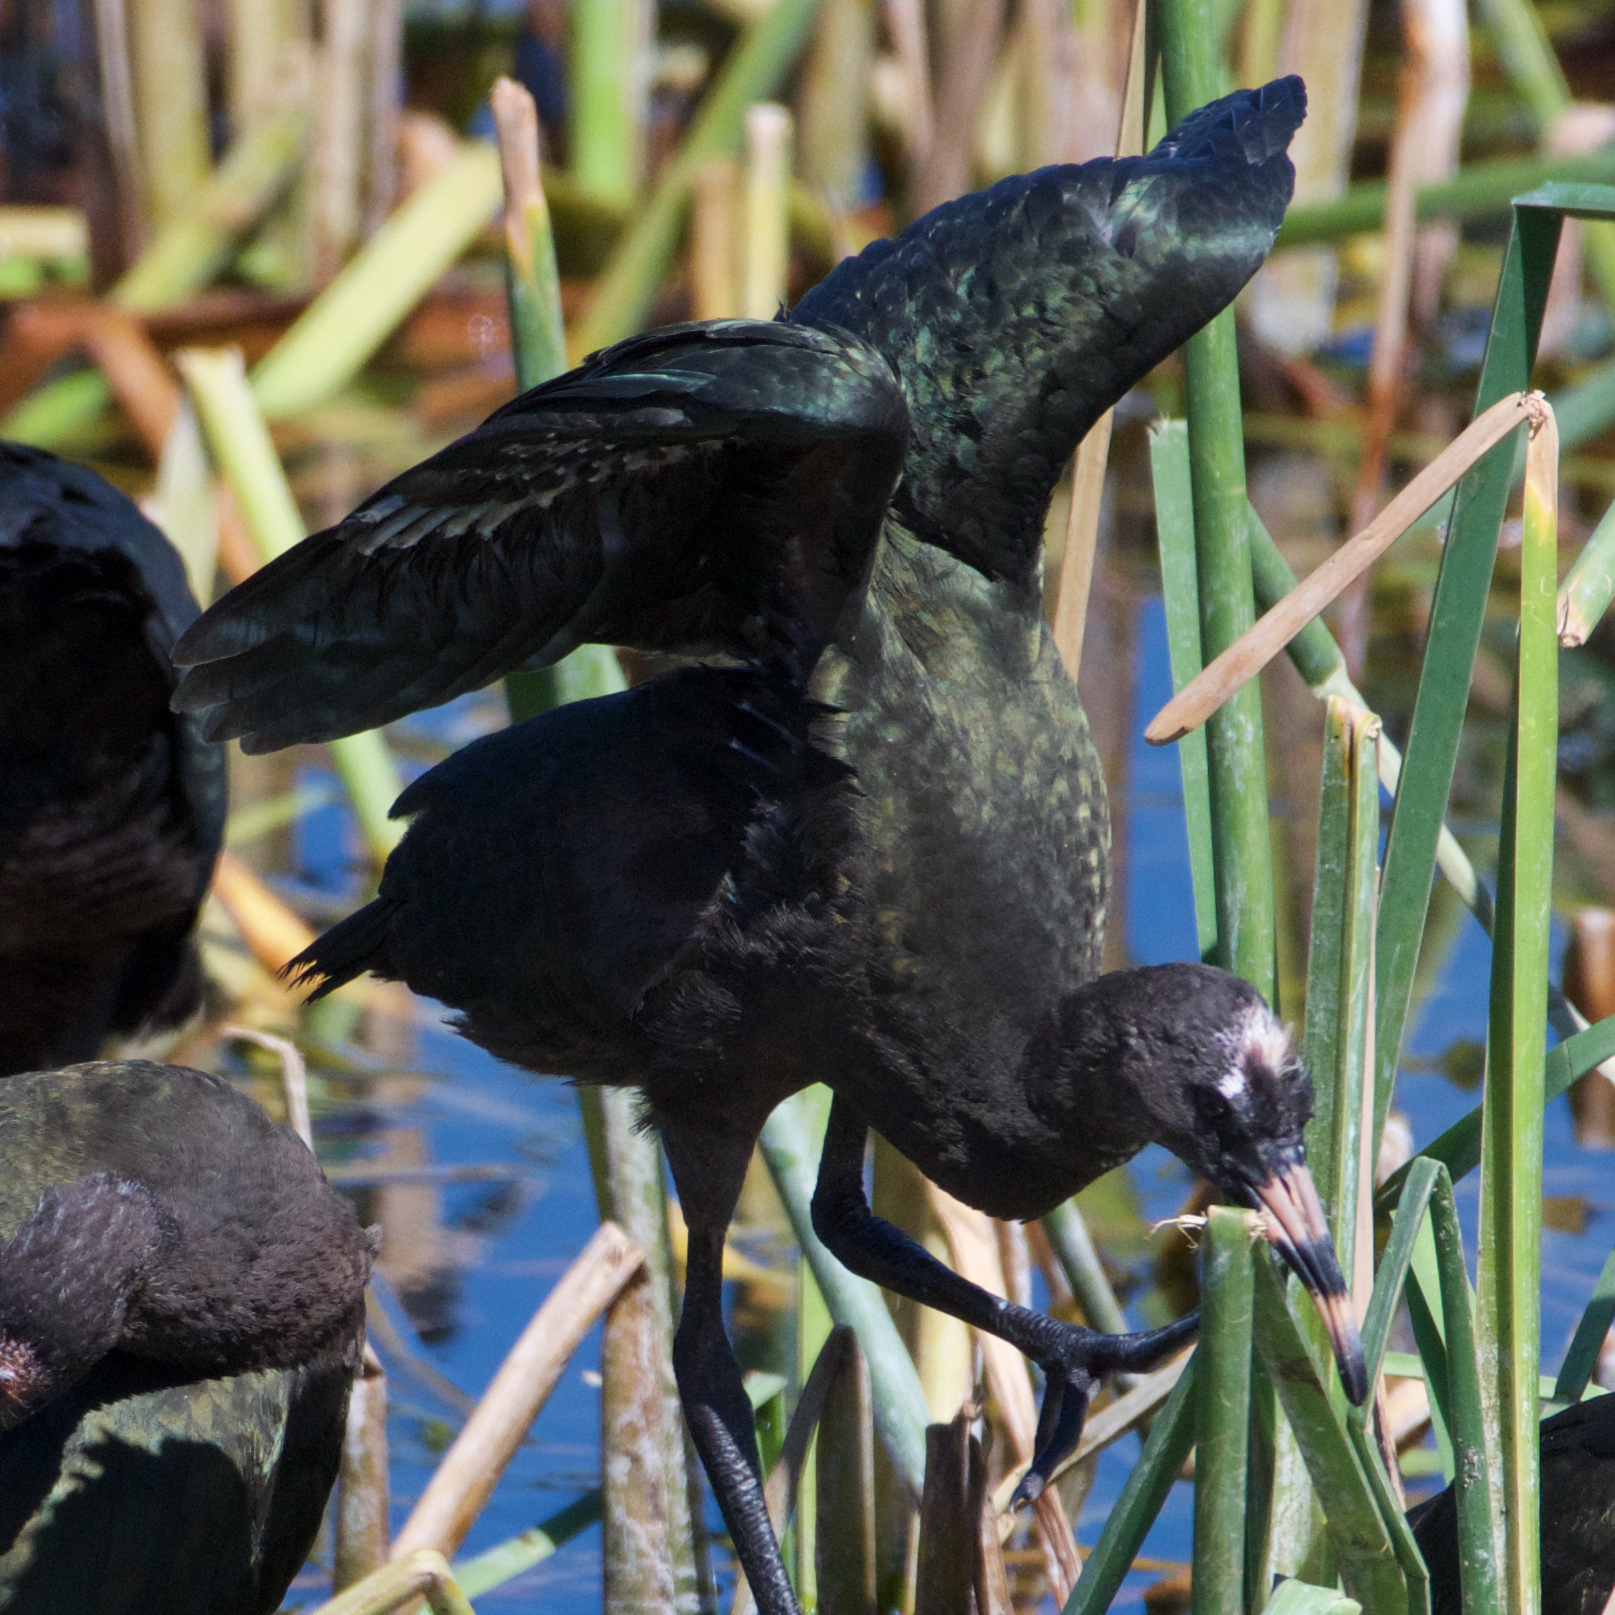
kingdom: Animalia
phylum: Chordata
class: Aves
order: Pelecaniformes
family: Threskiornithidae
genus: Plegadis
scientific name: Plegadis chihi
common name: White-faced ibis
